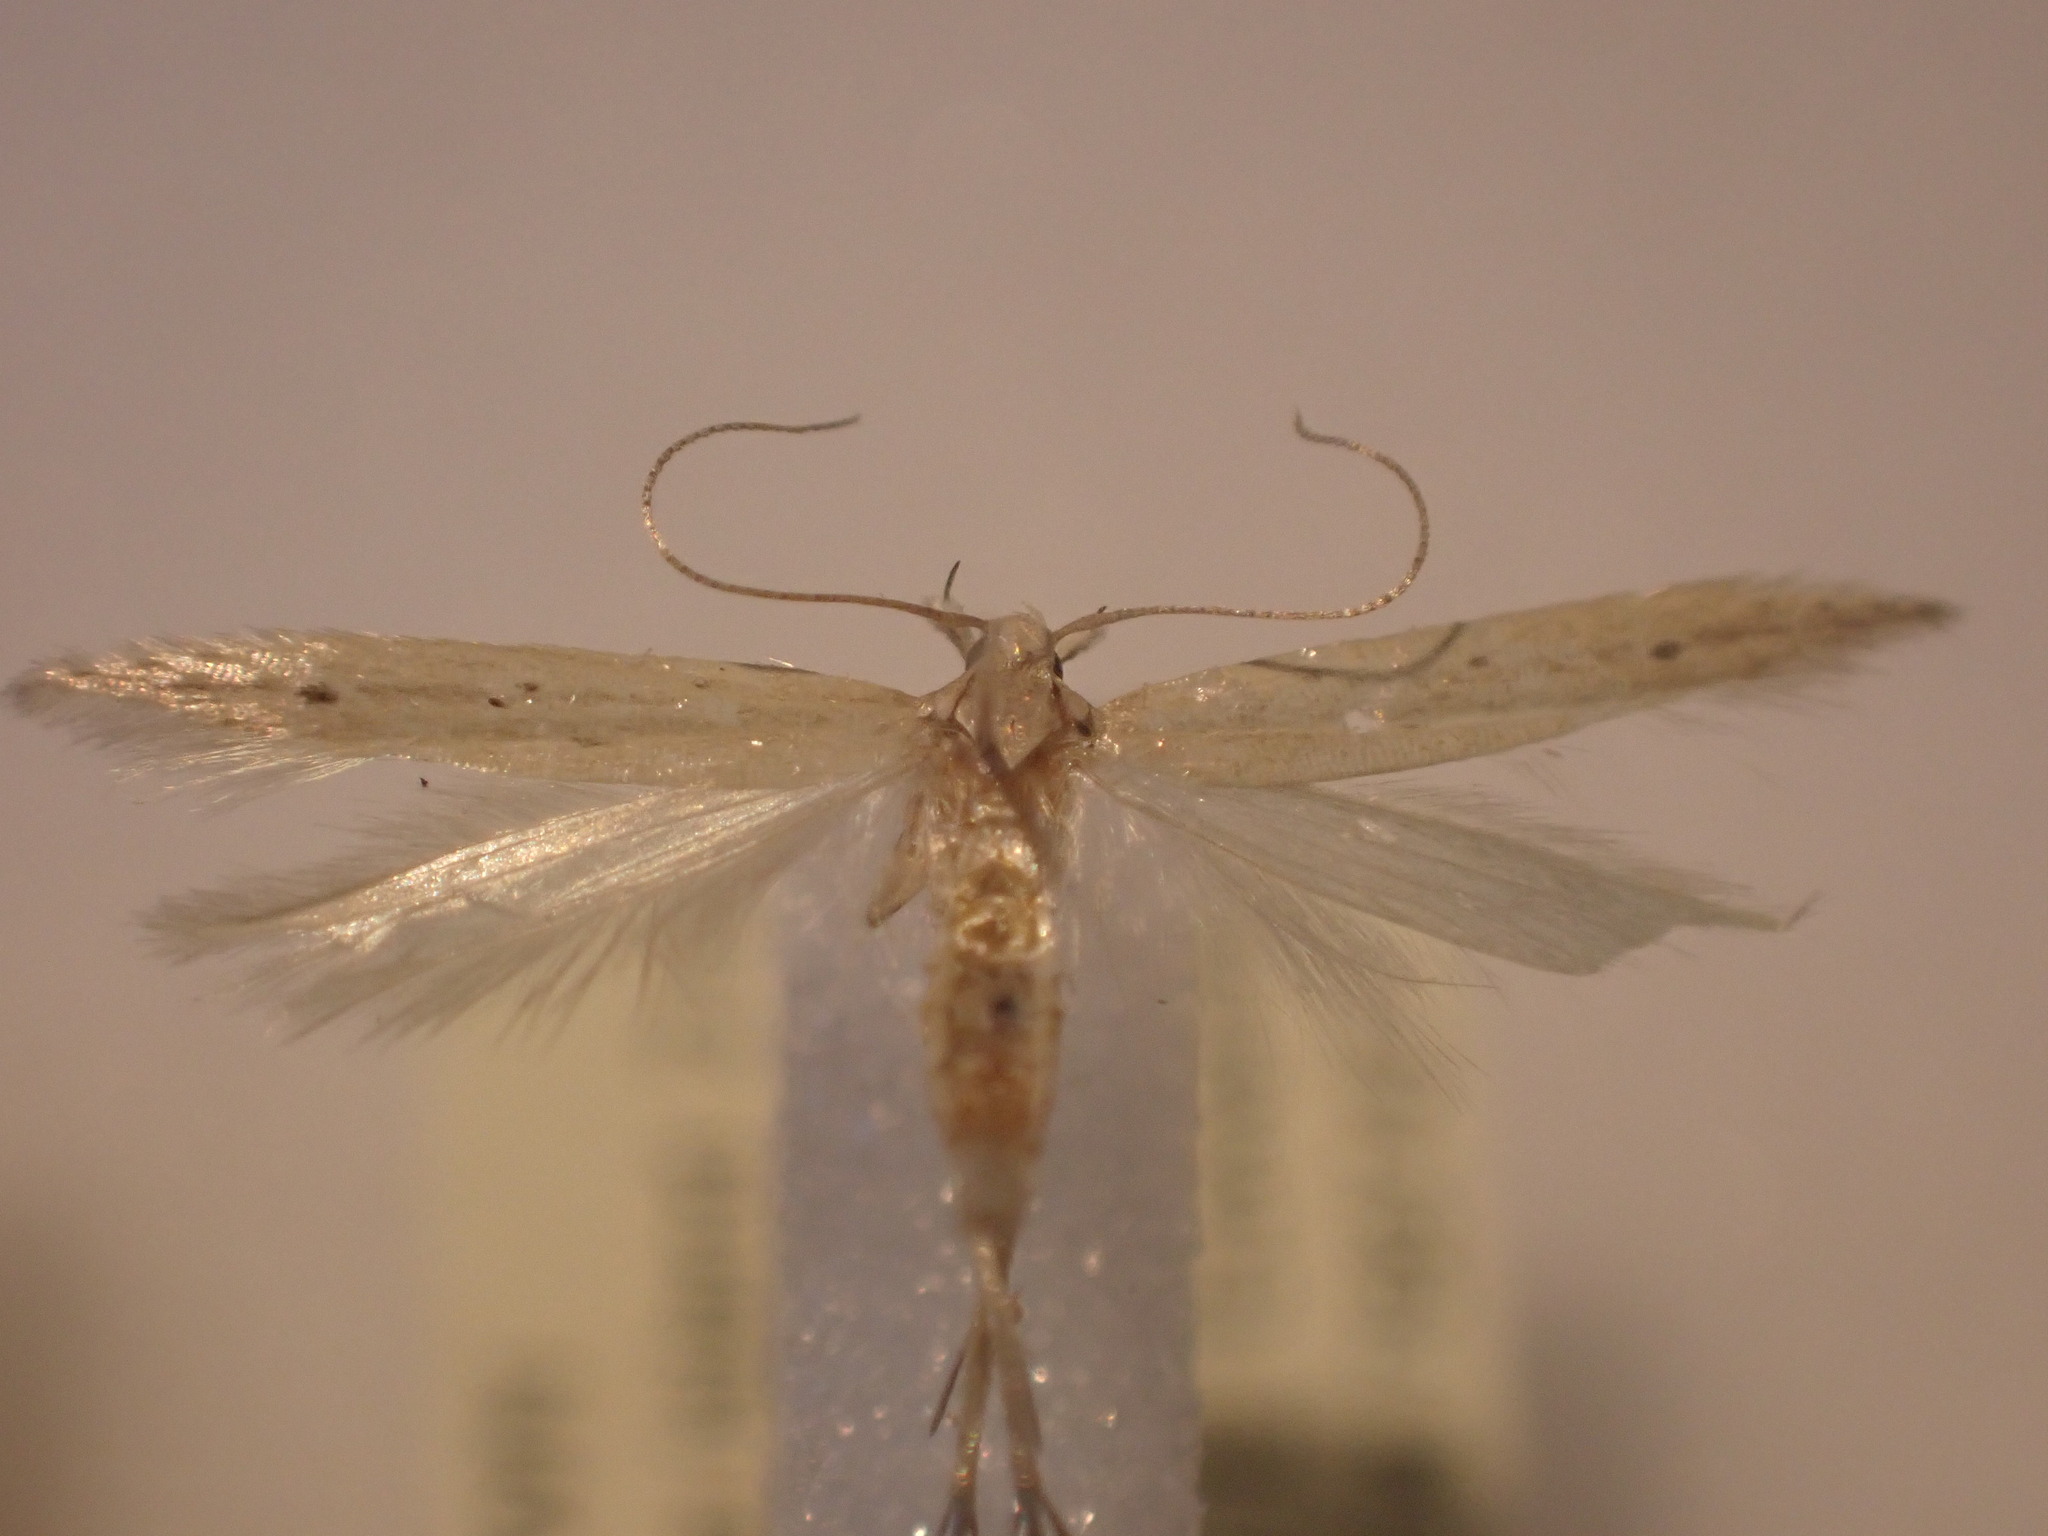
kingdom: Animalia
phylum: Arthropoda
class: Insecta
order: Lepidoptera
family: Gelechiidae
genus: Epiphthora
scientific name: Epiphthora calamogonus
